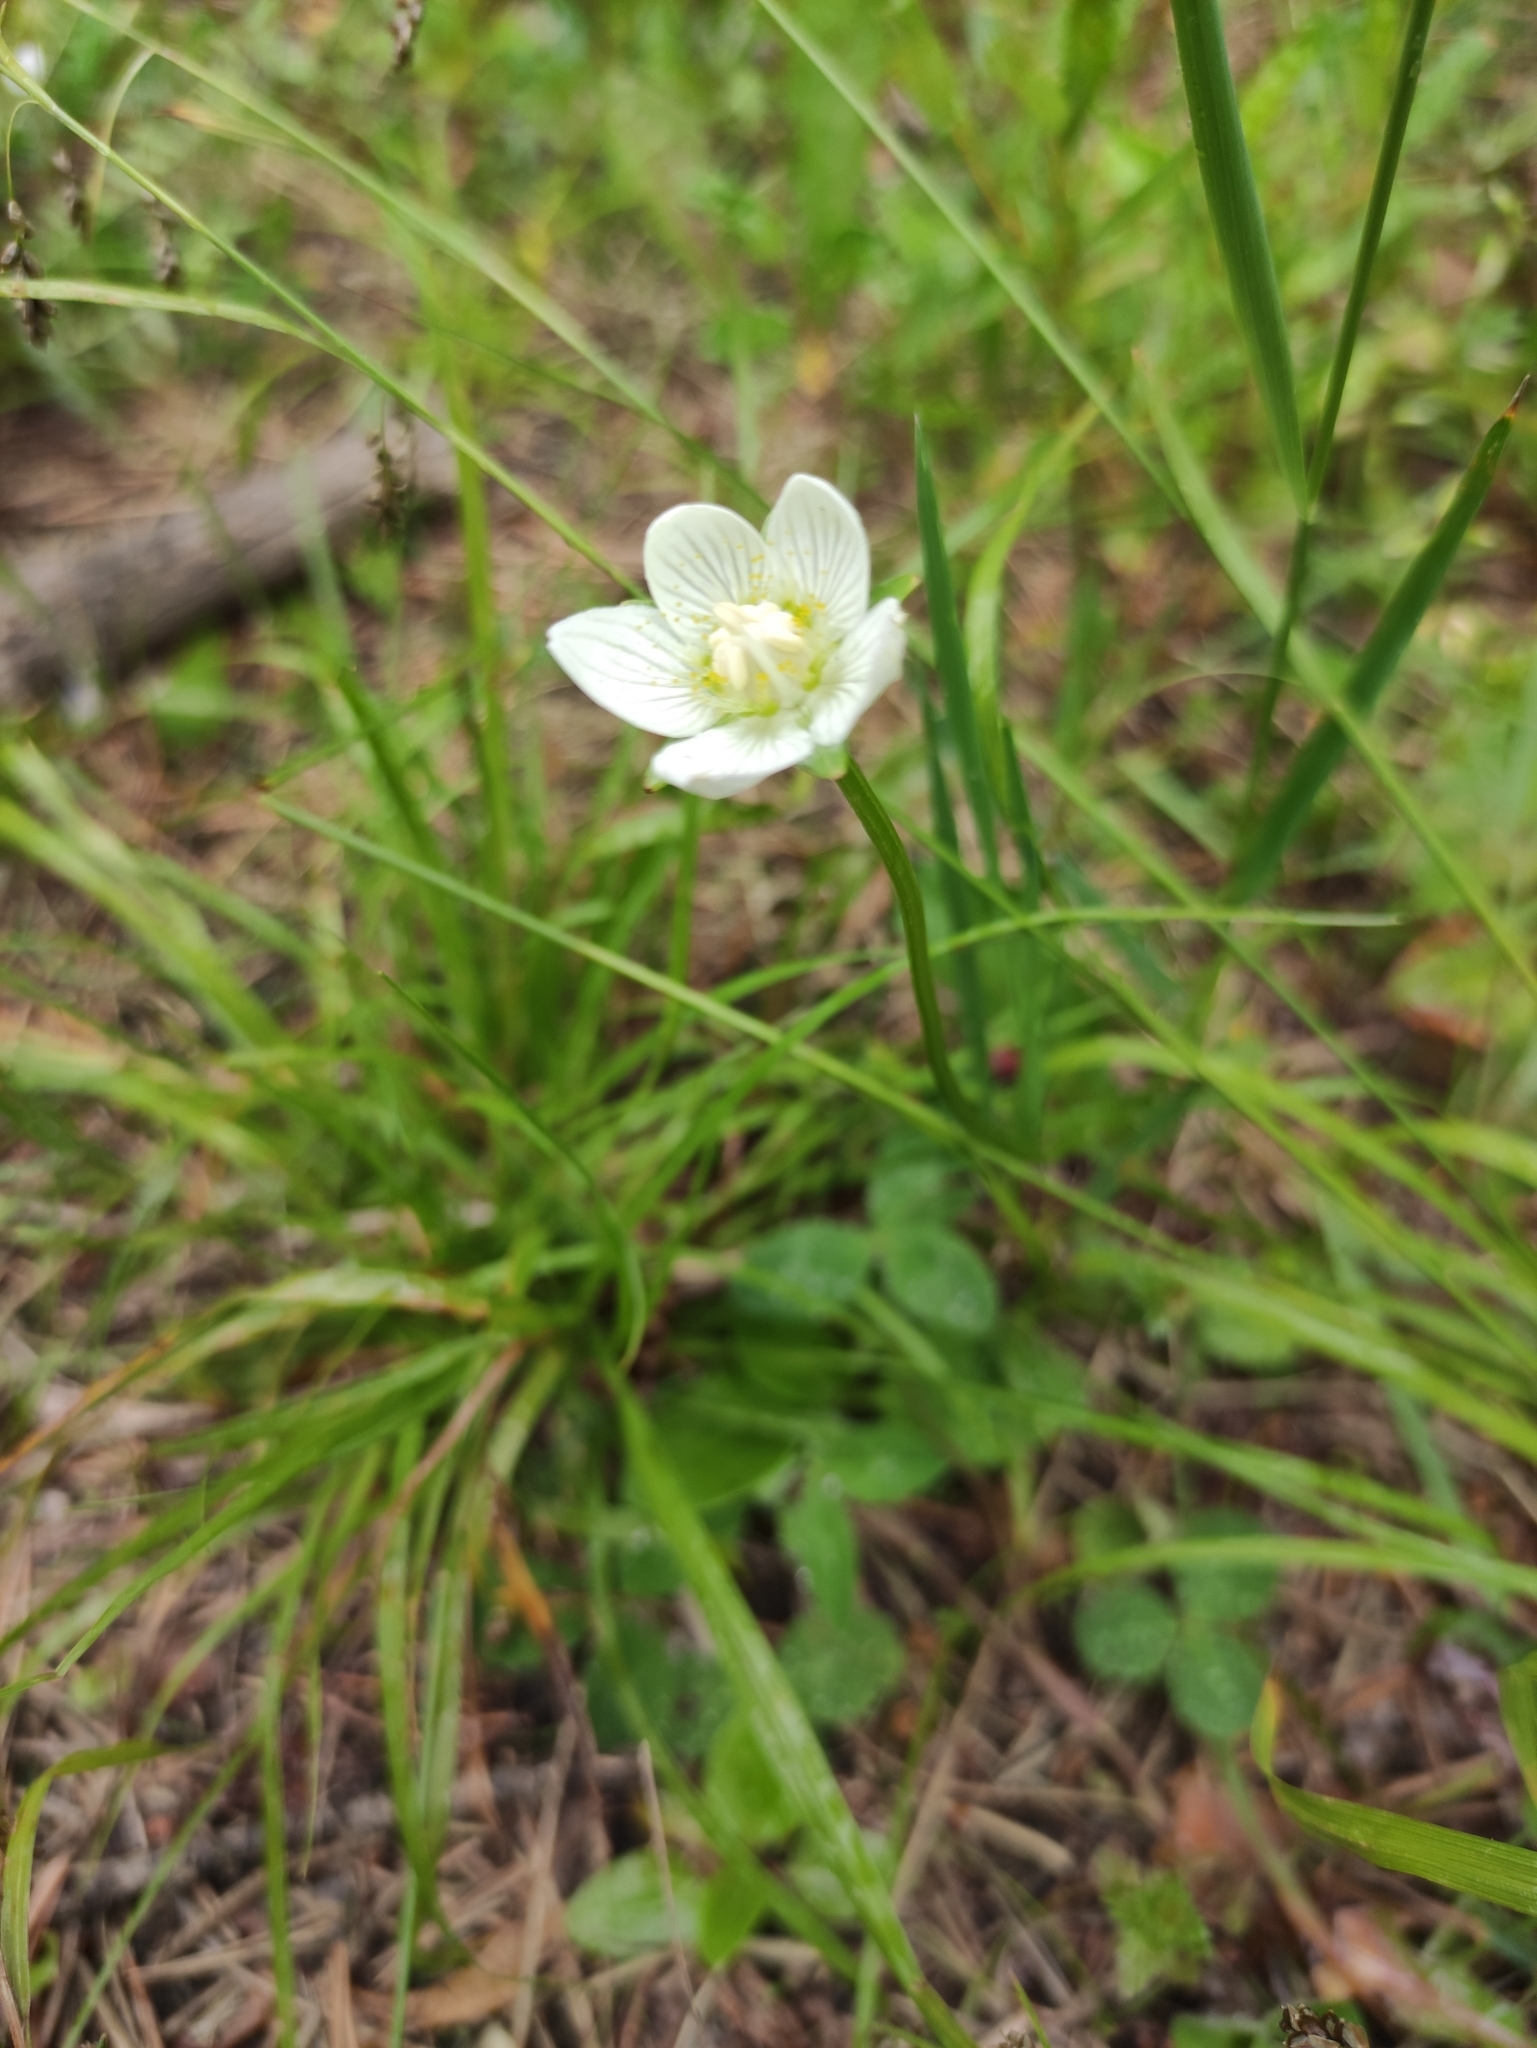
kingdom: Plantae
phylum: Tracheophyta
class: Magnoliopsida
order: Celastrales
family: Parnassiaceae
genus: Parnassia
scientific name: Parnassia palustris
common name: Grass-of-parnassus
